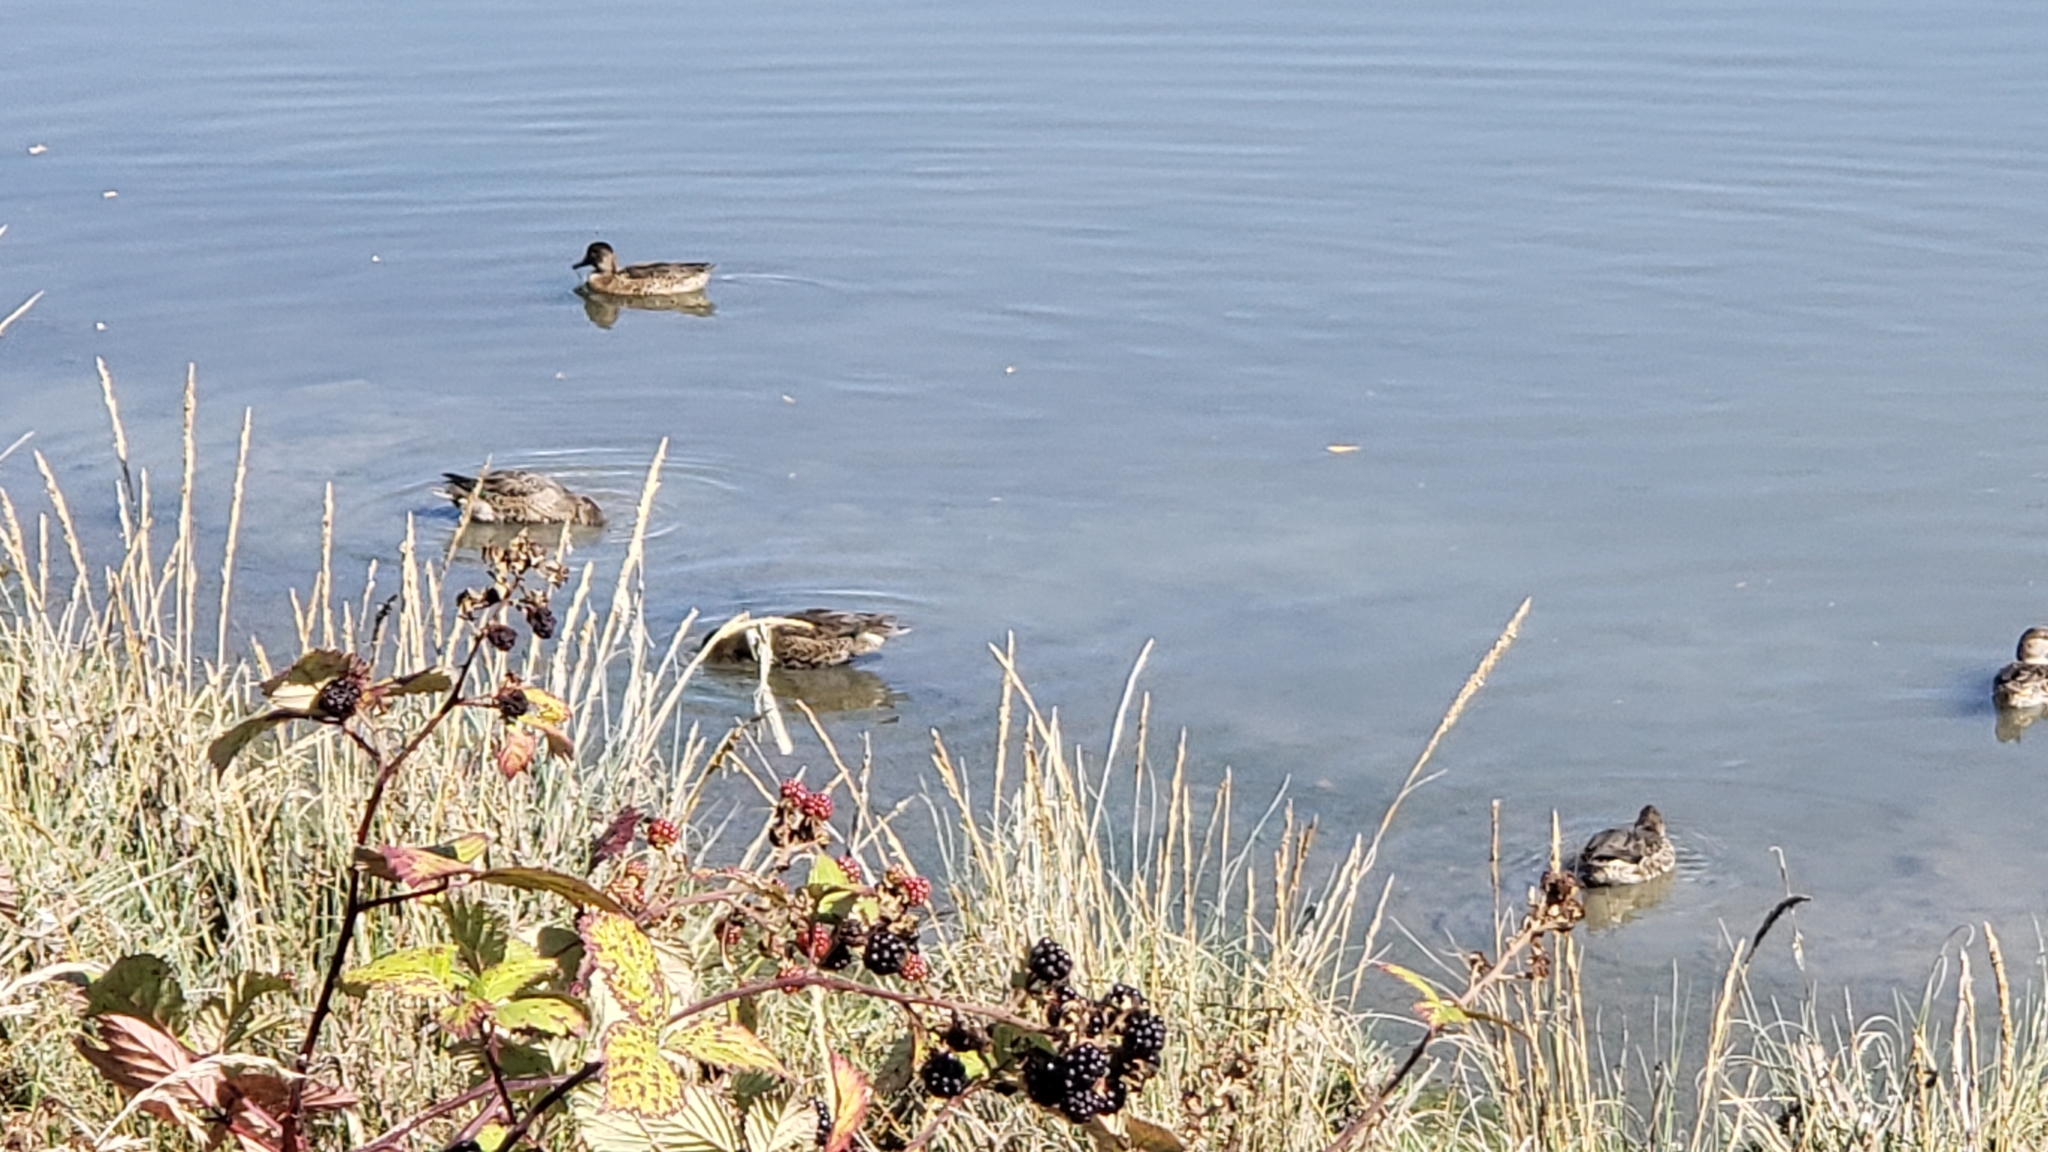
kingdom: Animalia
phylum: Chordata
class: Aves
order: Anseriformes
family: Anatidae
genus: Anas
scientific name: Anas crecca
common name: Eurasian teal
